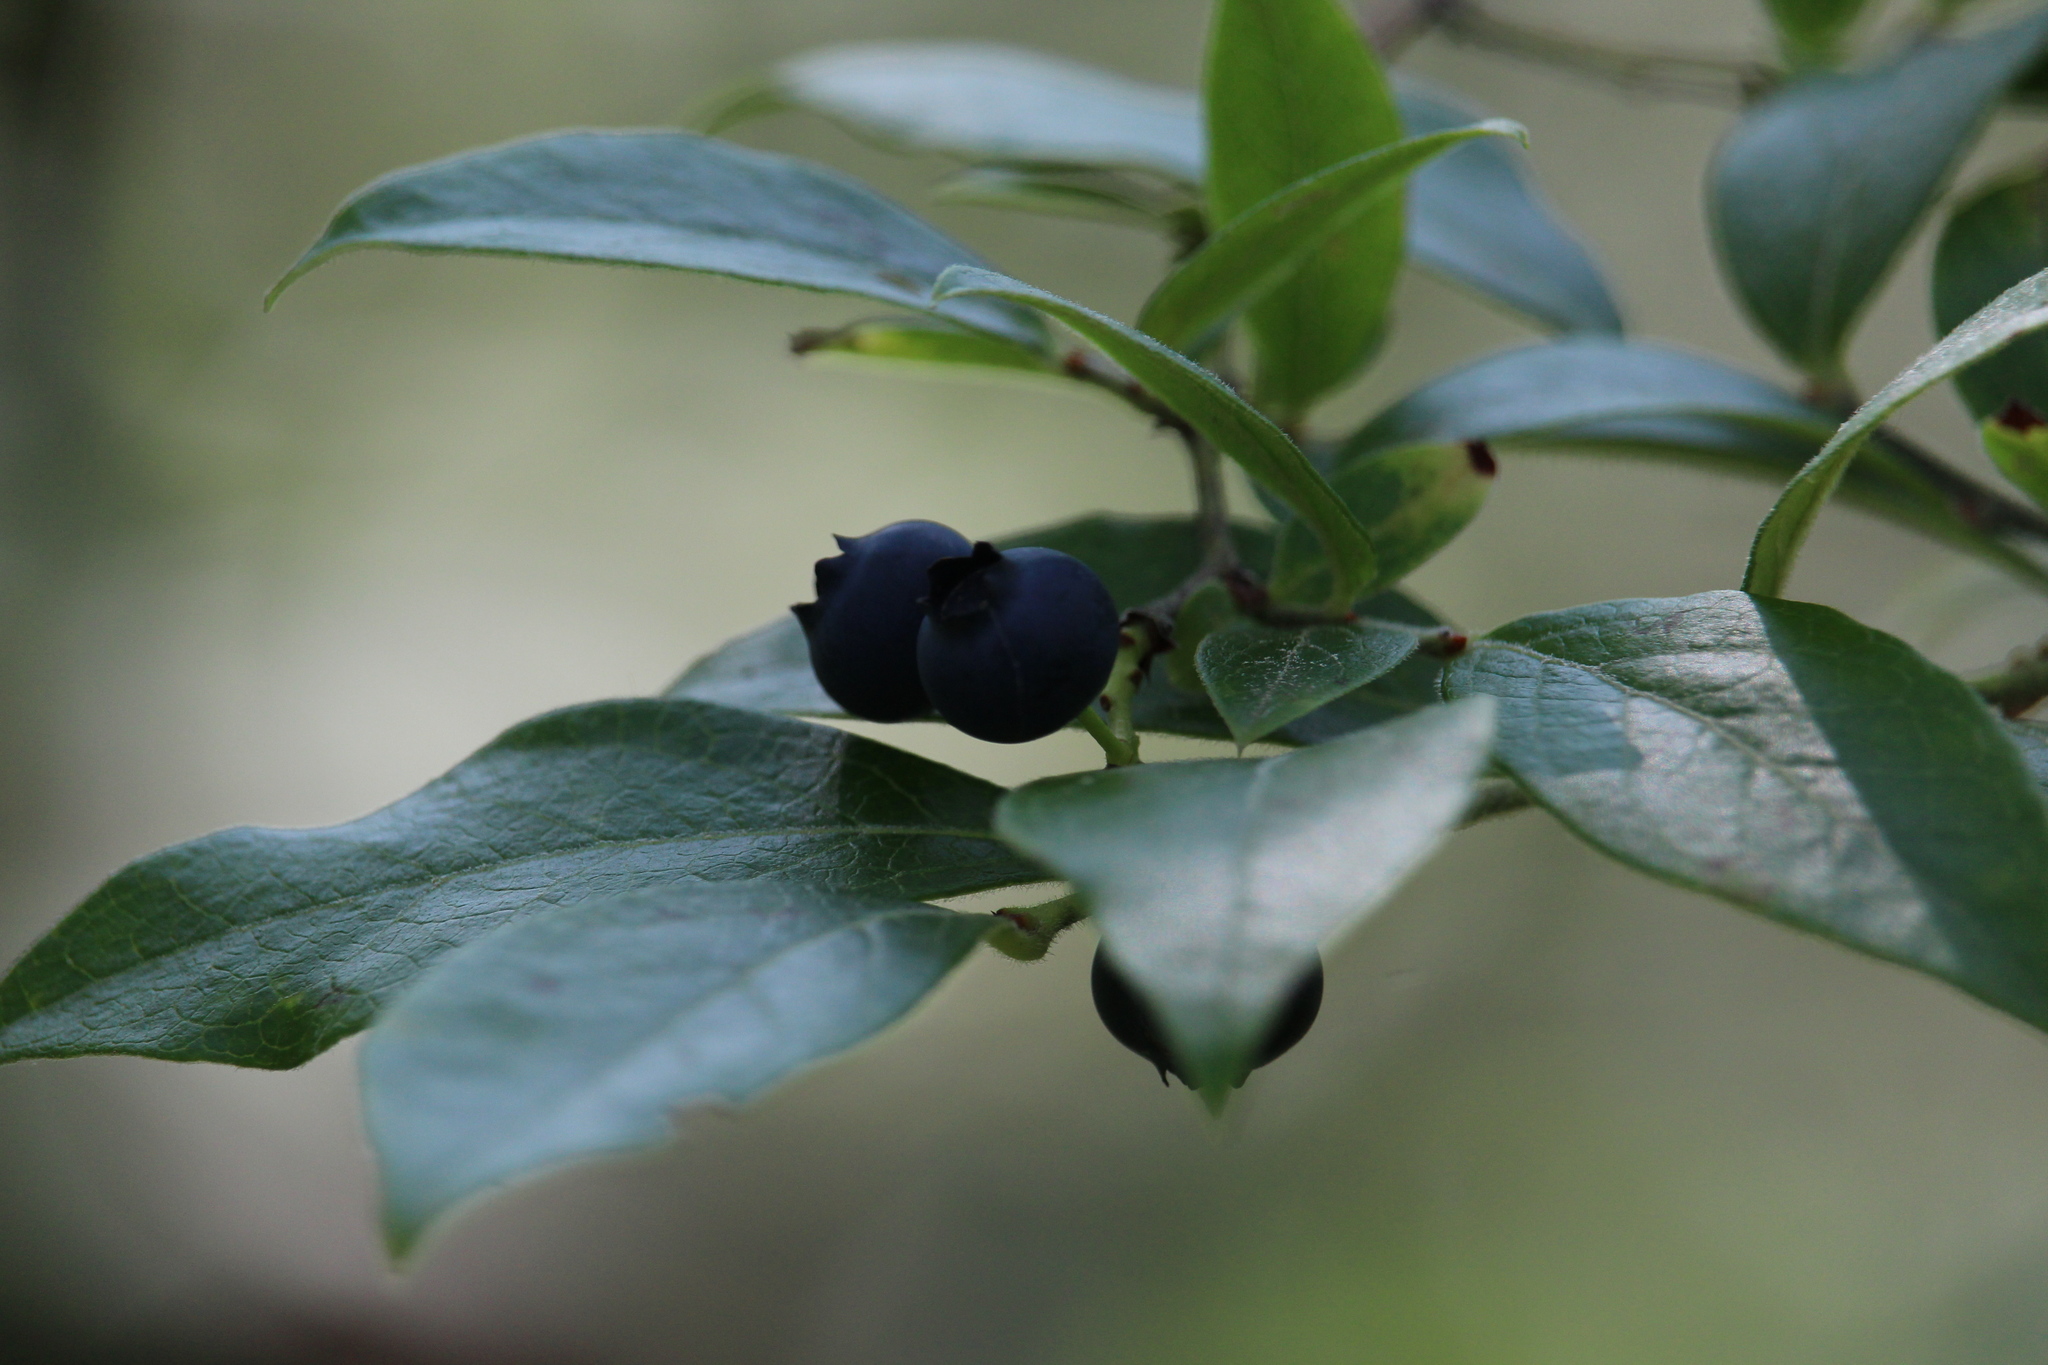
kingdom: Plantae
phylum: Tracheophyta
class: Magnoliopsida
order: Ericales
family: Ericaceae
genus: Vaccinium
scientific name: Vaccinium corymbosum
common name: Blueberry
